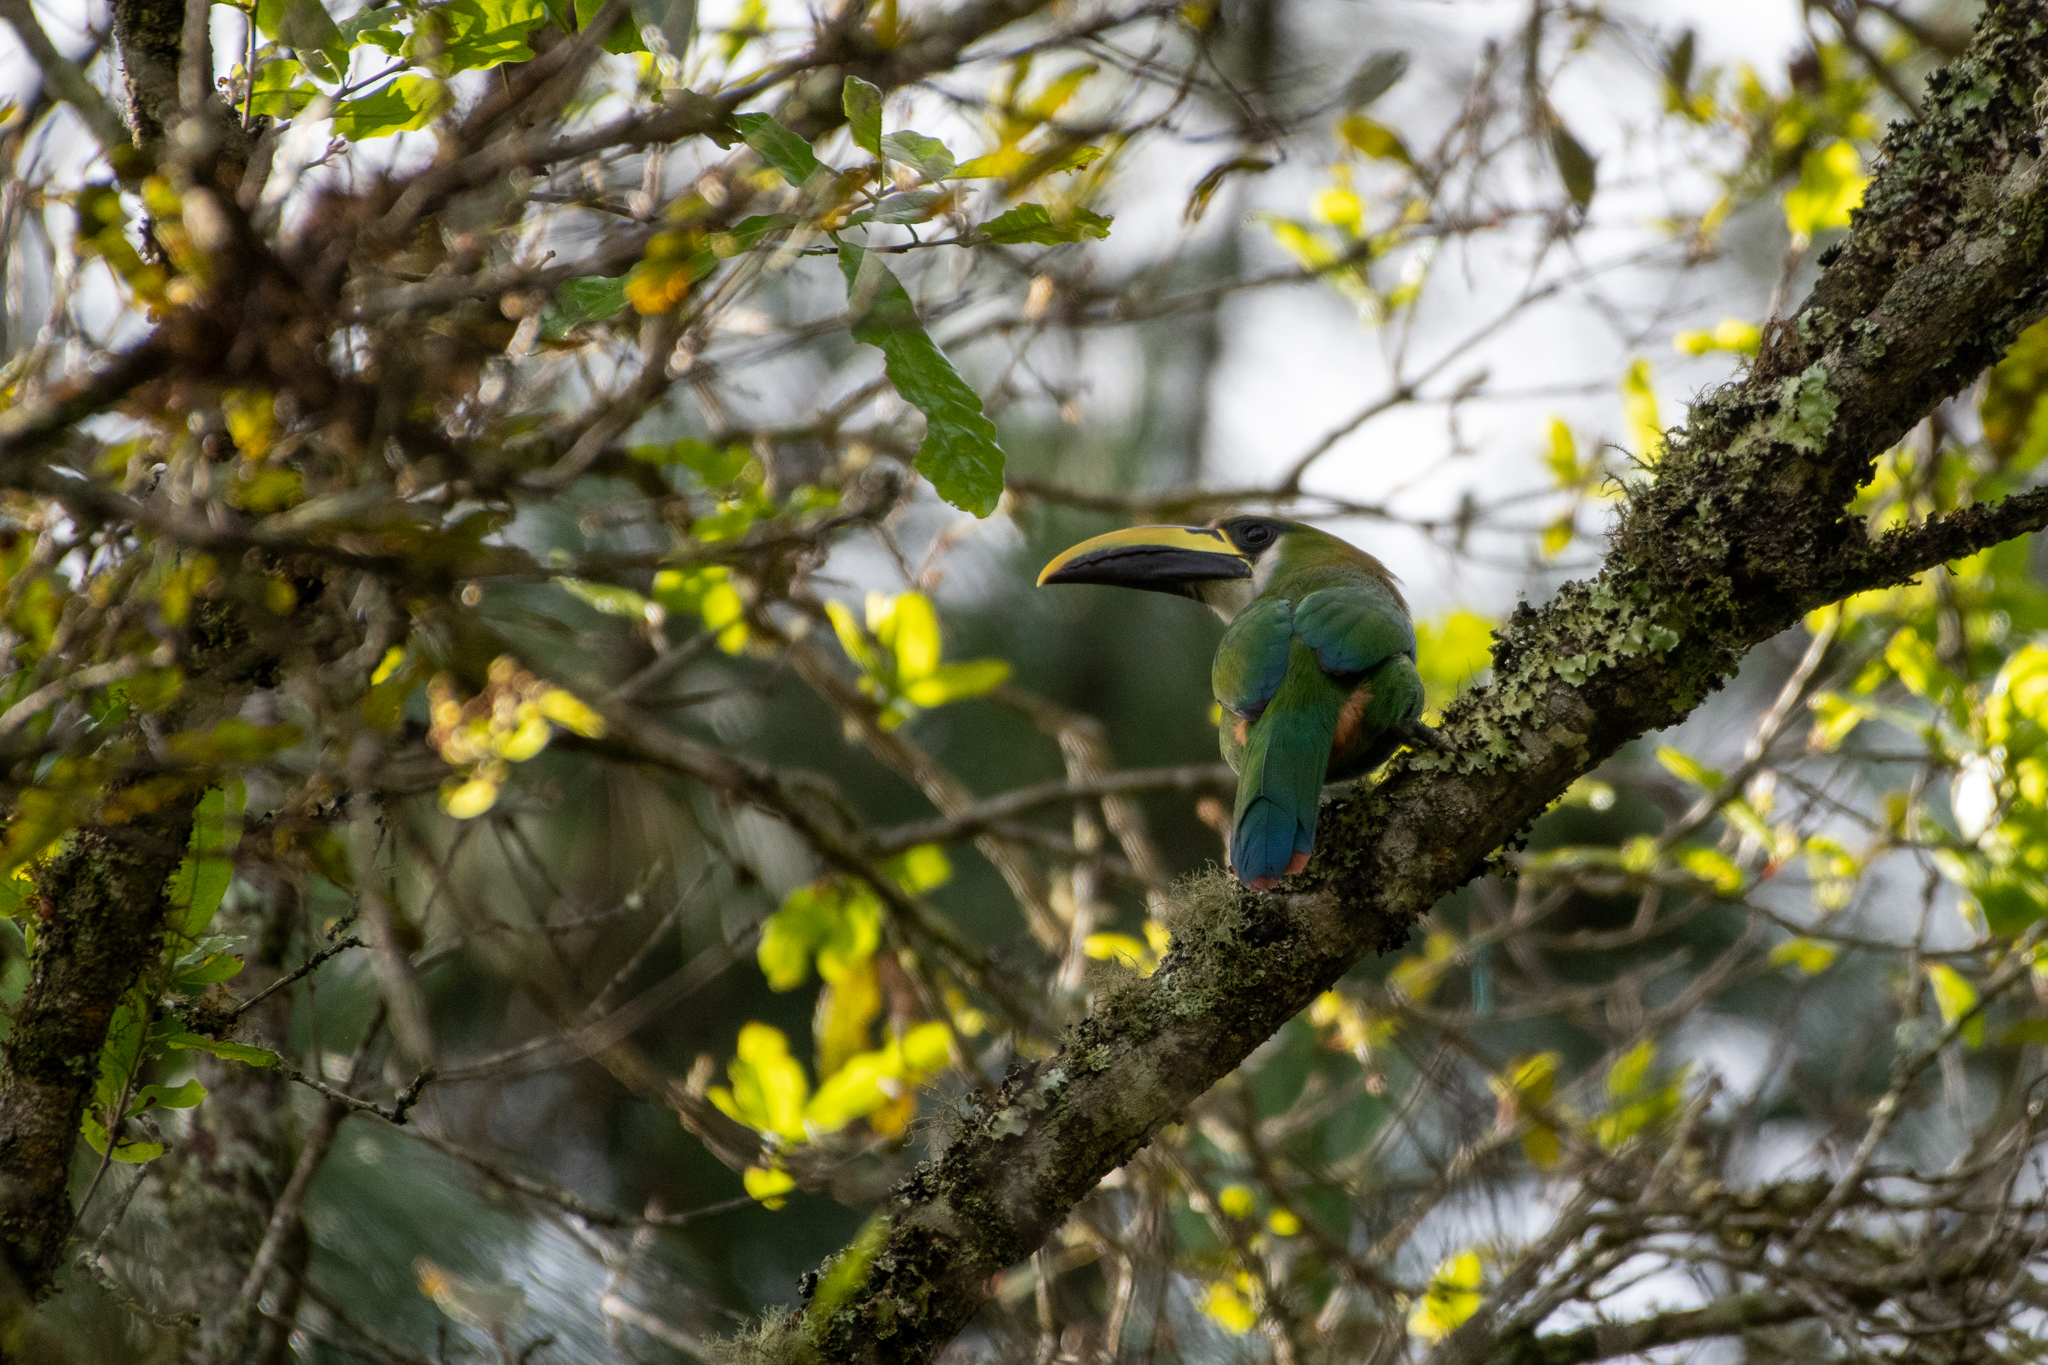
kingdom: Animalia
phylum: Chordata
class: Aves
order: Piciformes
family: Ramphastidae
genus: Aulacorhynchus
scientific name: Aulacorhynchus prasinus
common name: Emerald toucanet
